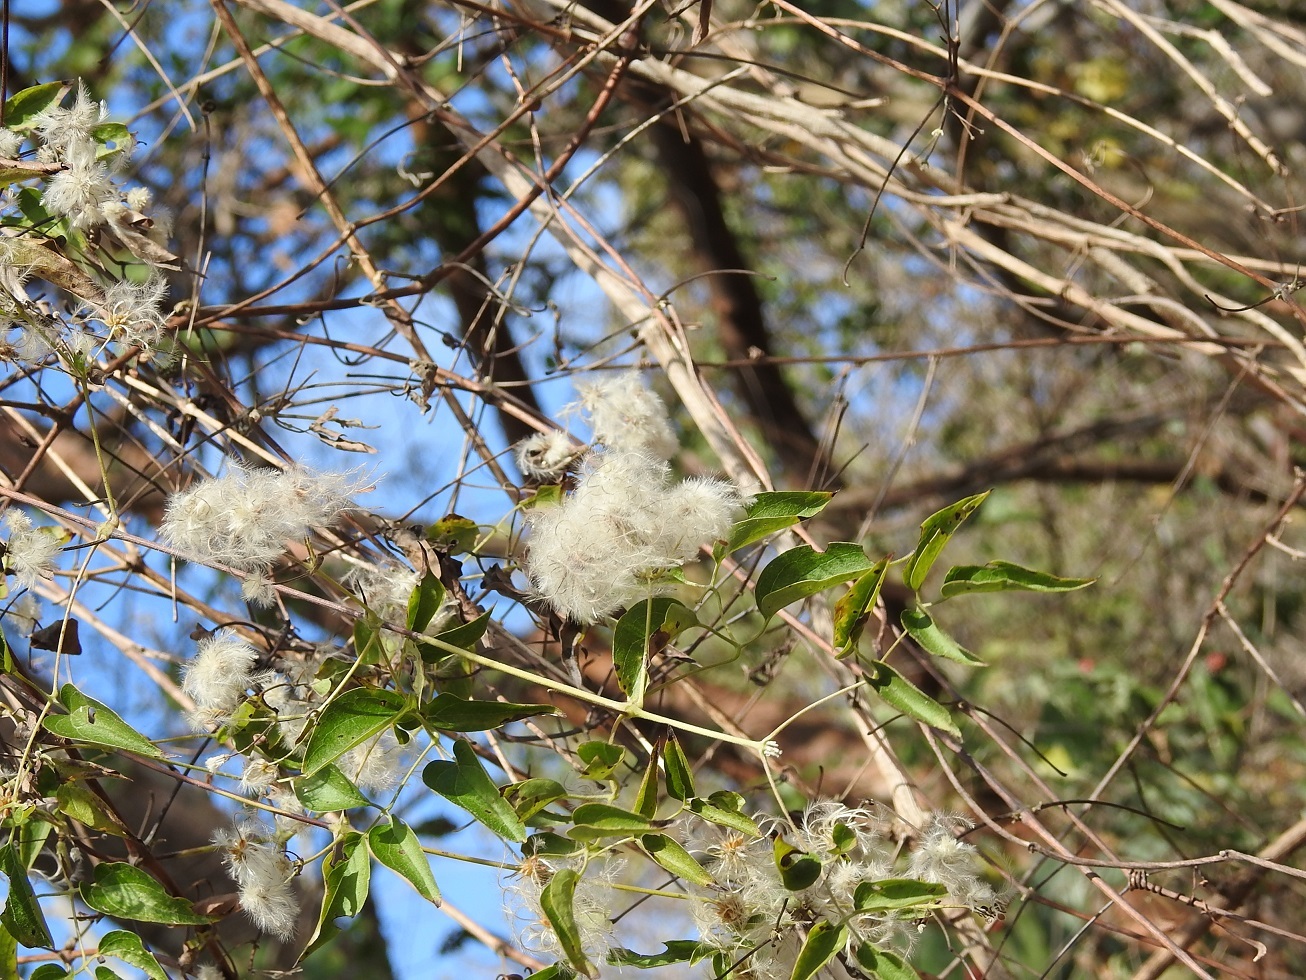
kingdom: Plantae
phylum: Tracheophyta
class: Magnoliopsida
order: Ranunculales
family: Ranunculaceae
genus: Clematis
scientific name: Clematis dioica
